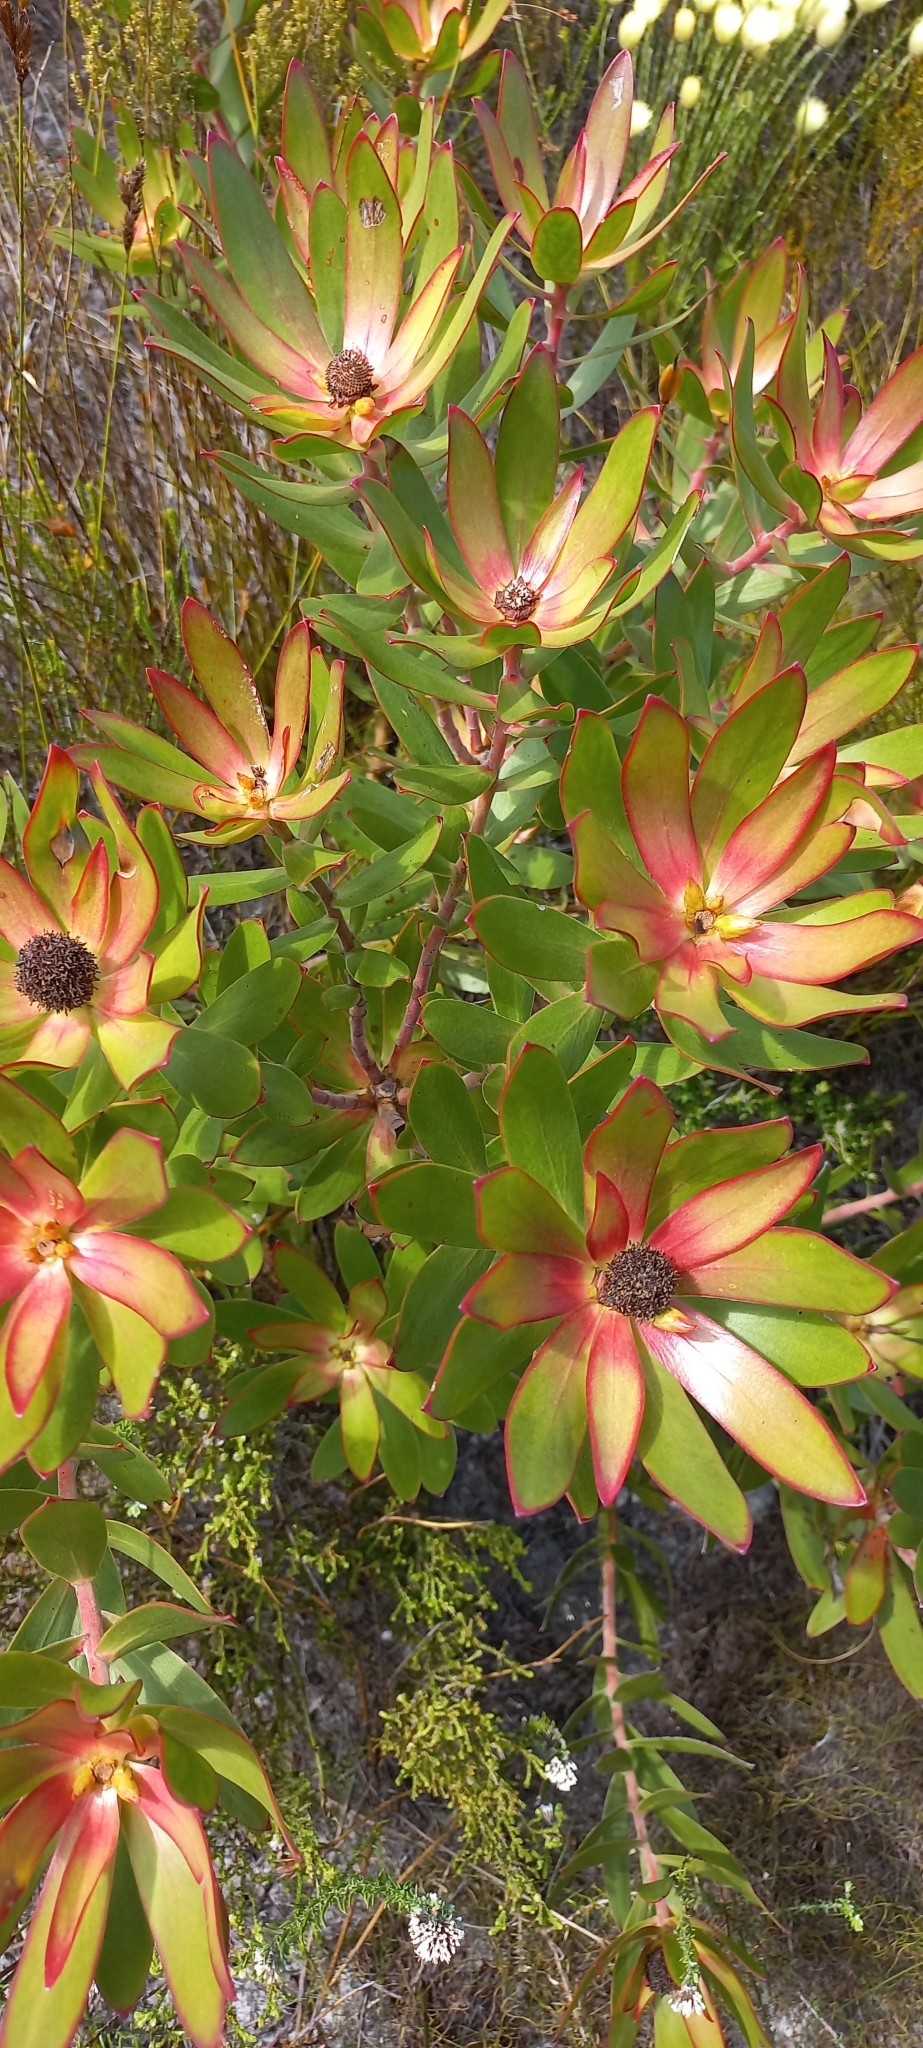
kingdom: Plantae
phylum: Tracheophyta
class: Magnoliopsida
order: Proteales
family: Proteaceae
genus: Leucadendron
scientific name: Leucadendron gandogeri
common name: Broad-leaf conebush
